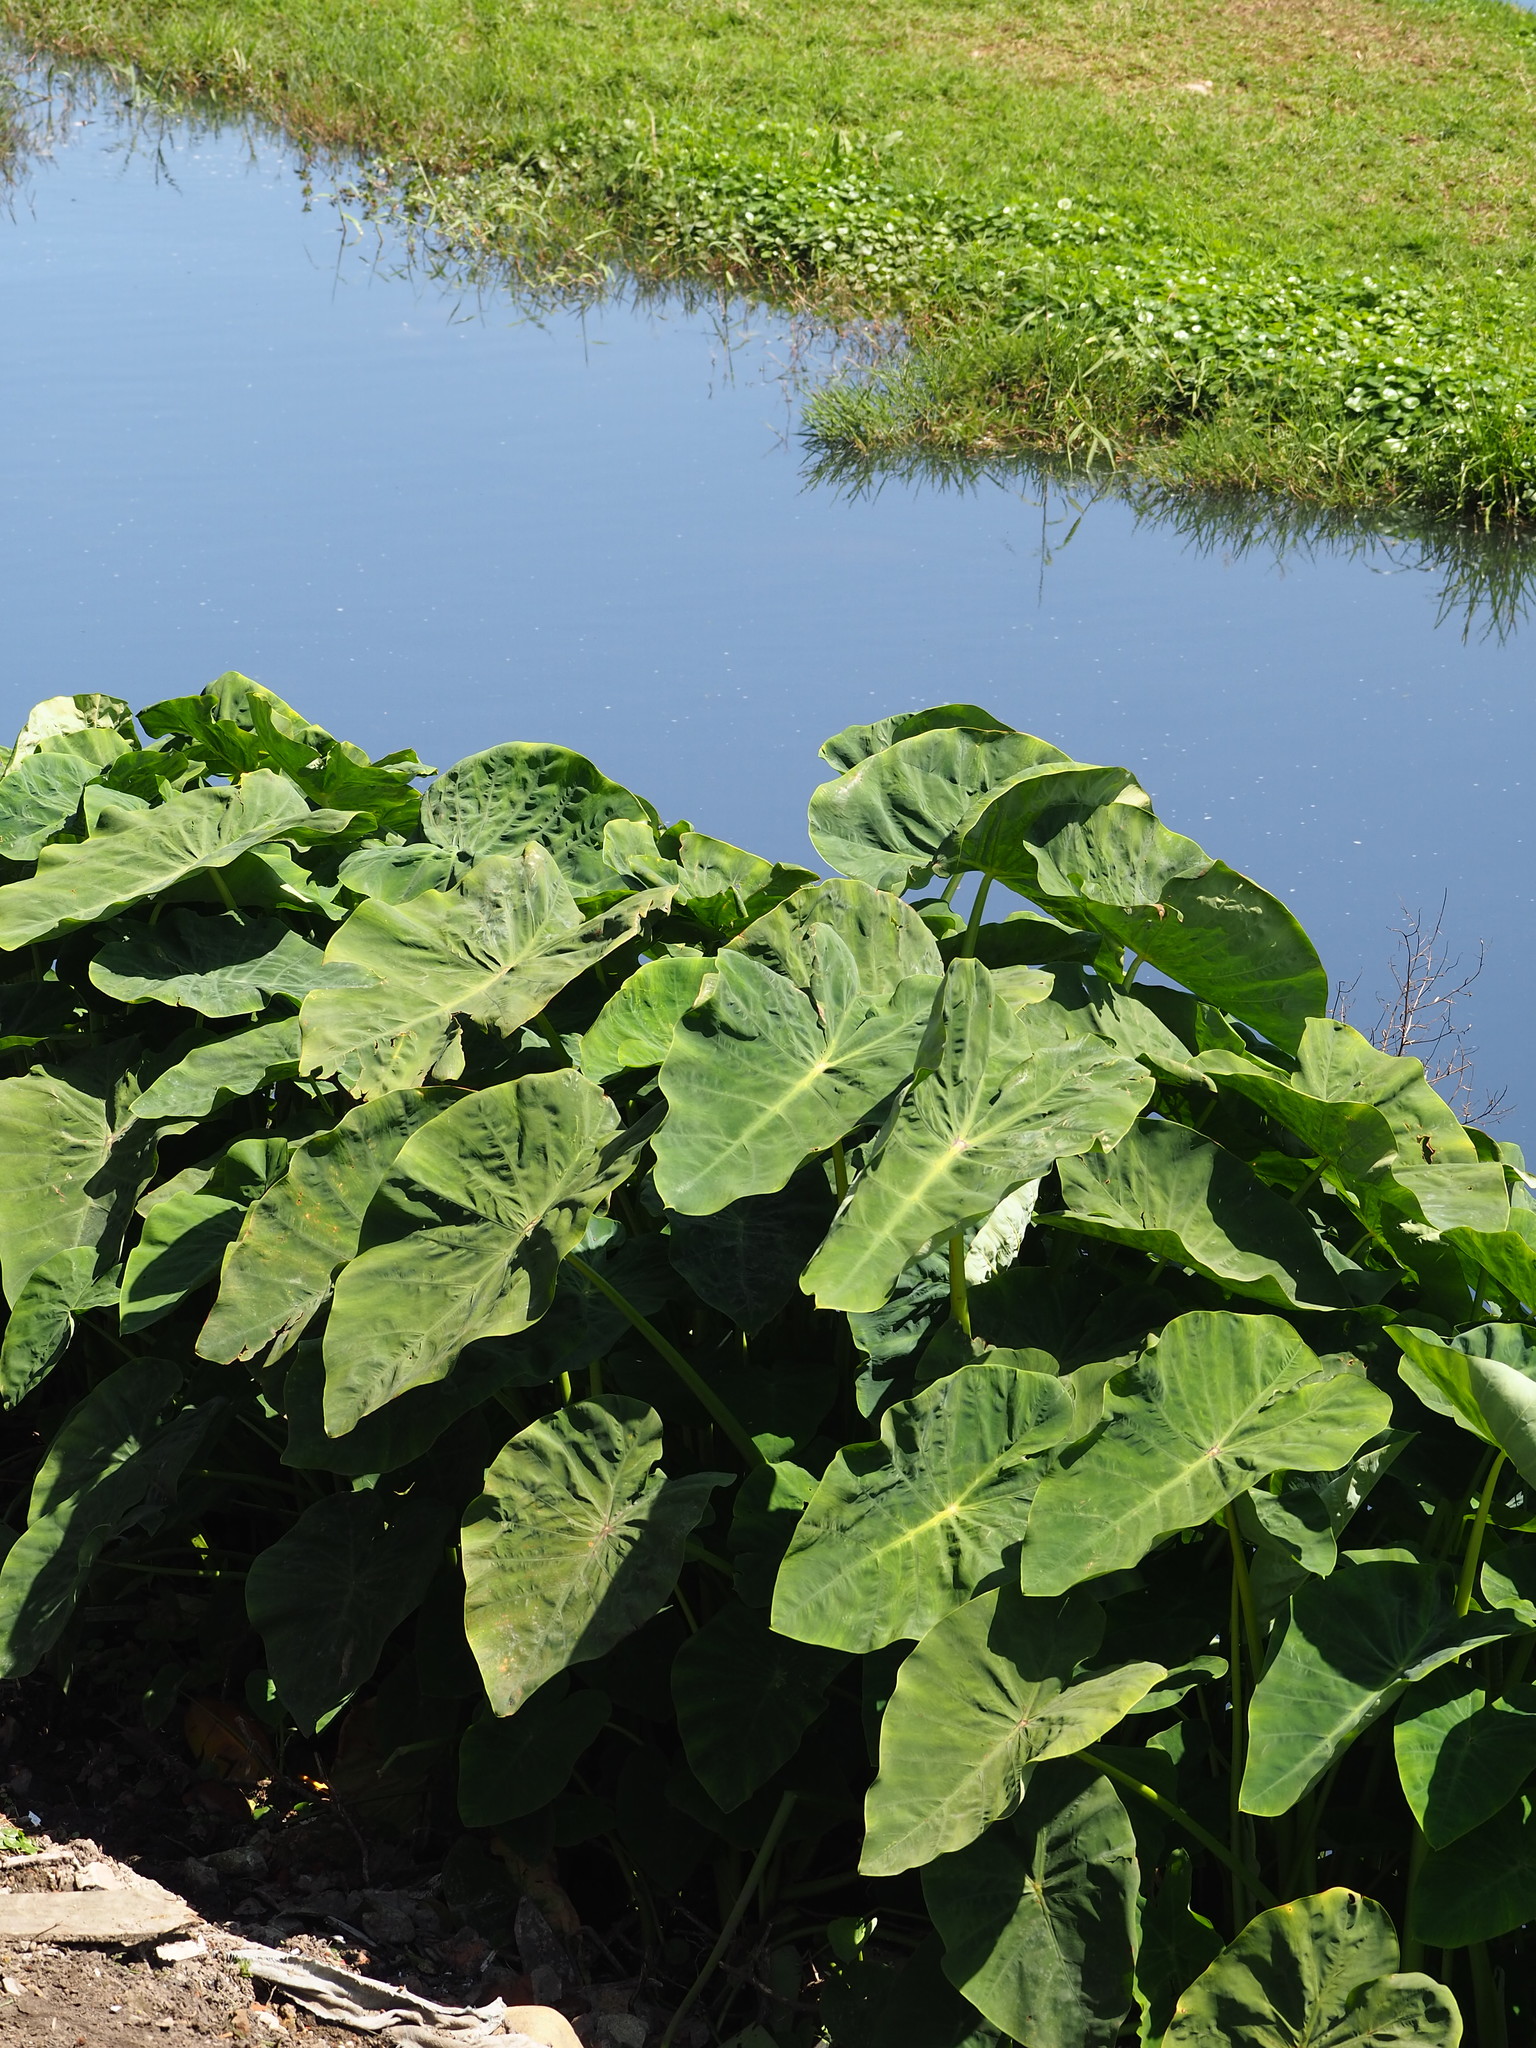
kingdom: Plantae
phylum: Tracheophyta
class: Liliopsida
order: Alismatales
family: Araceae
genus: Colocasia
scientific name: Colocasia esculenta
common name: Taro
